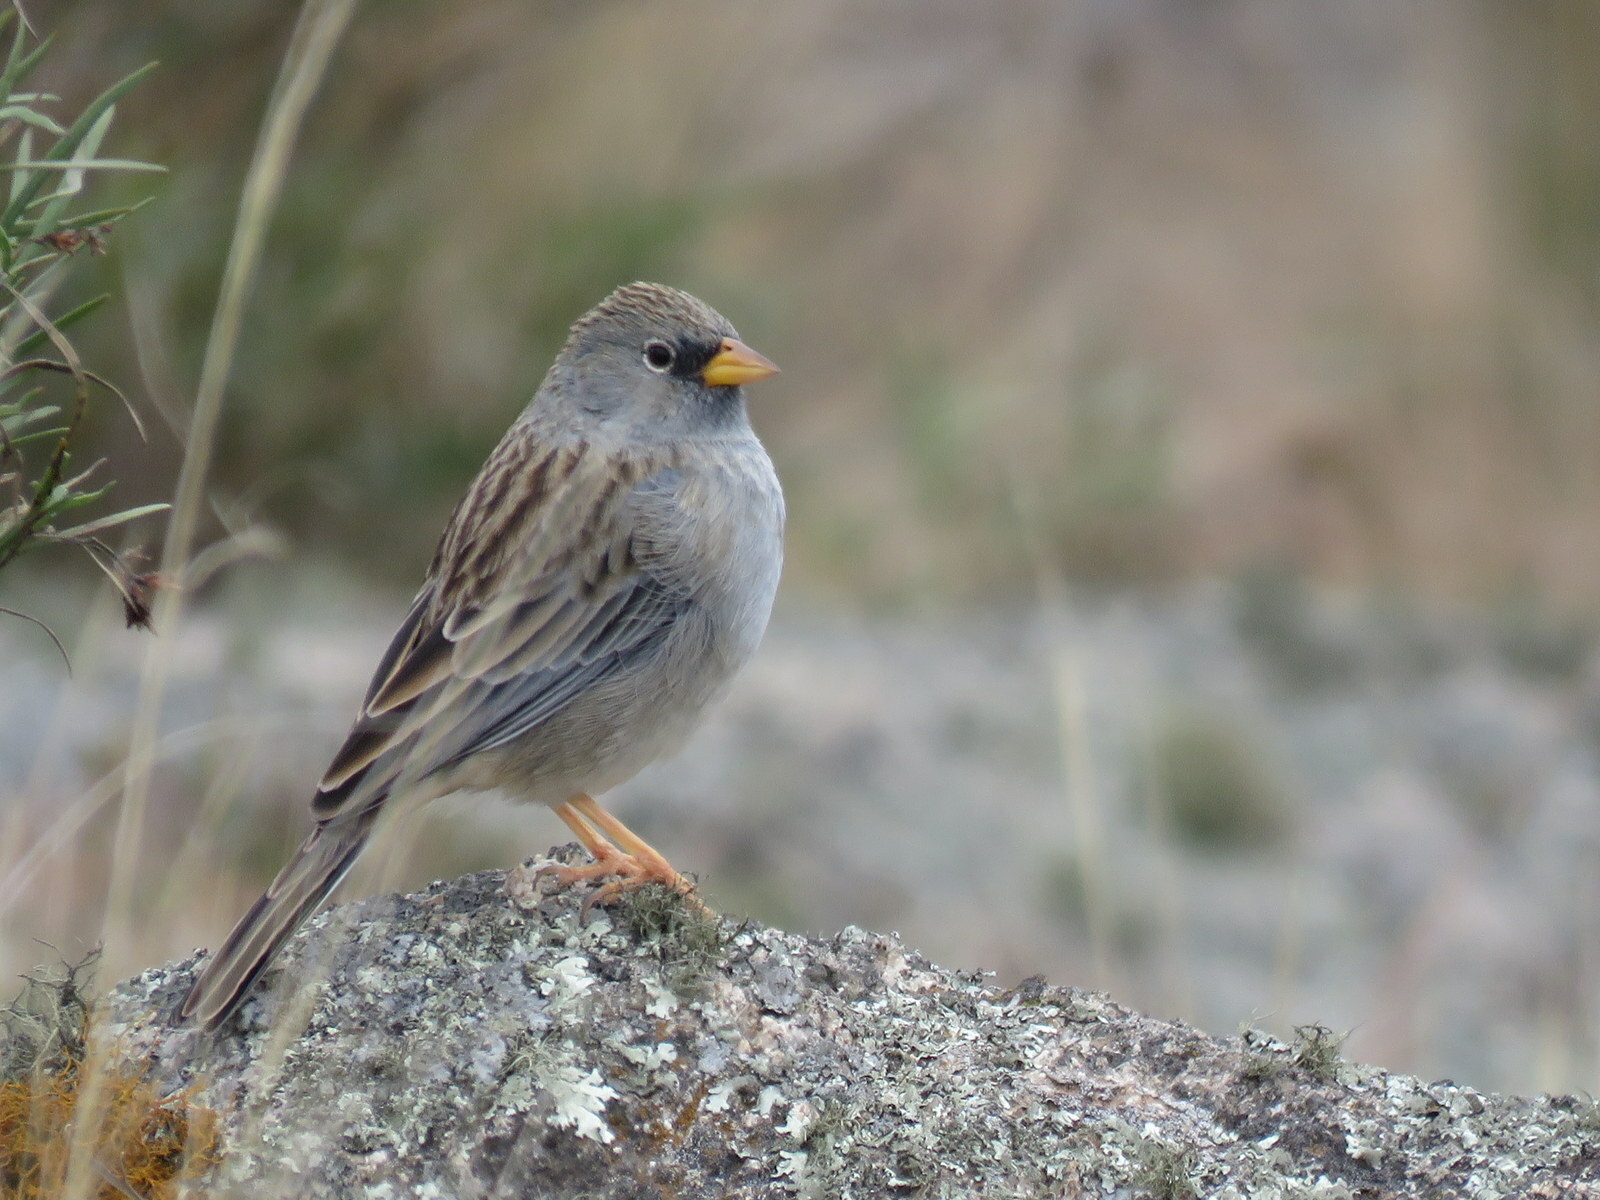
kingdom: Animalia
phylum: Chordata
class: Aves
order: Passeriformes
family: Thraupidae
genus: Porphyrospiza
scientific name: Porphyrospiza alaudina
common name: Band-tailed sierra finch
